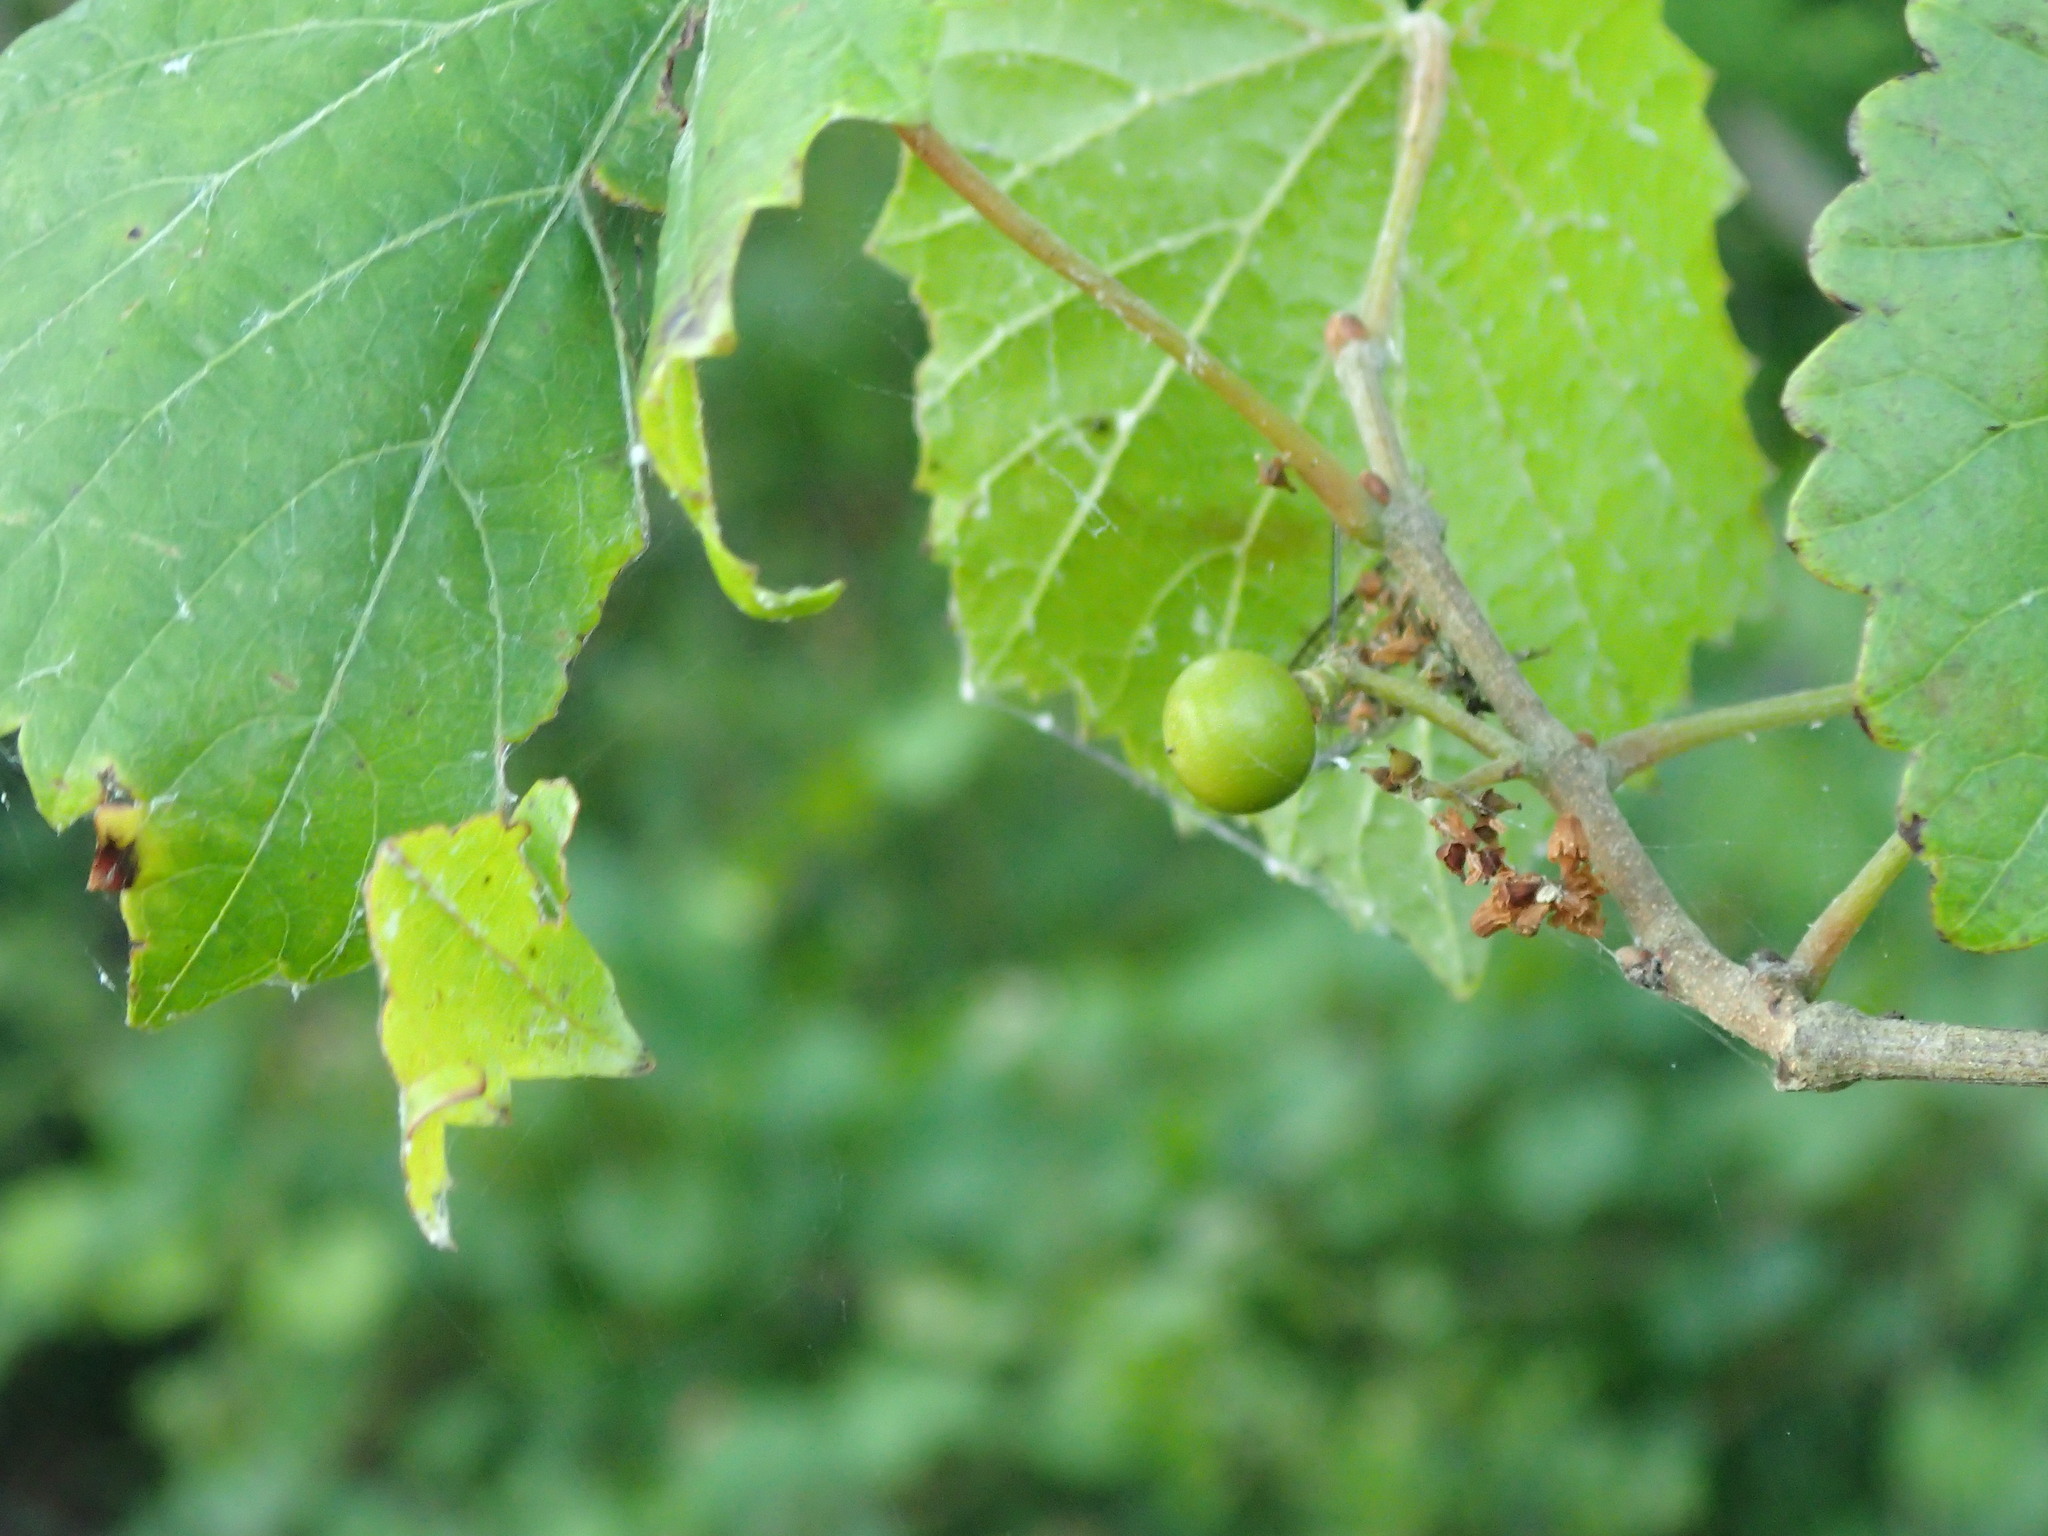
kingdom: Plantae
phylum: Tracheophyta
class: Magnoliopsida
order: Vitales
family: Vitaceae
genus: Vitis
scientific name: Vitis rotundifolia
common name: Muscadine grape
